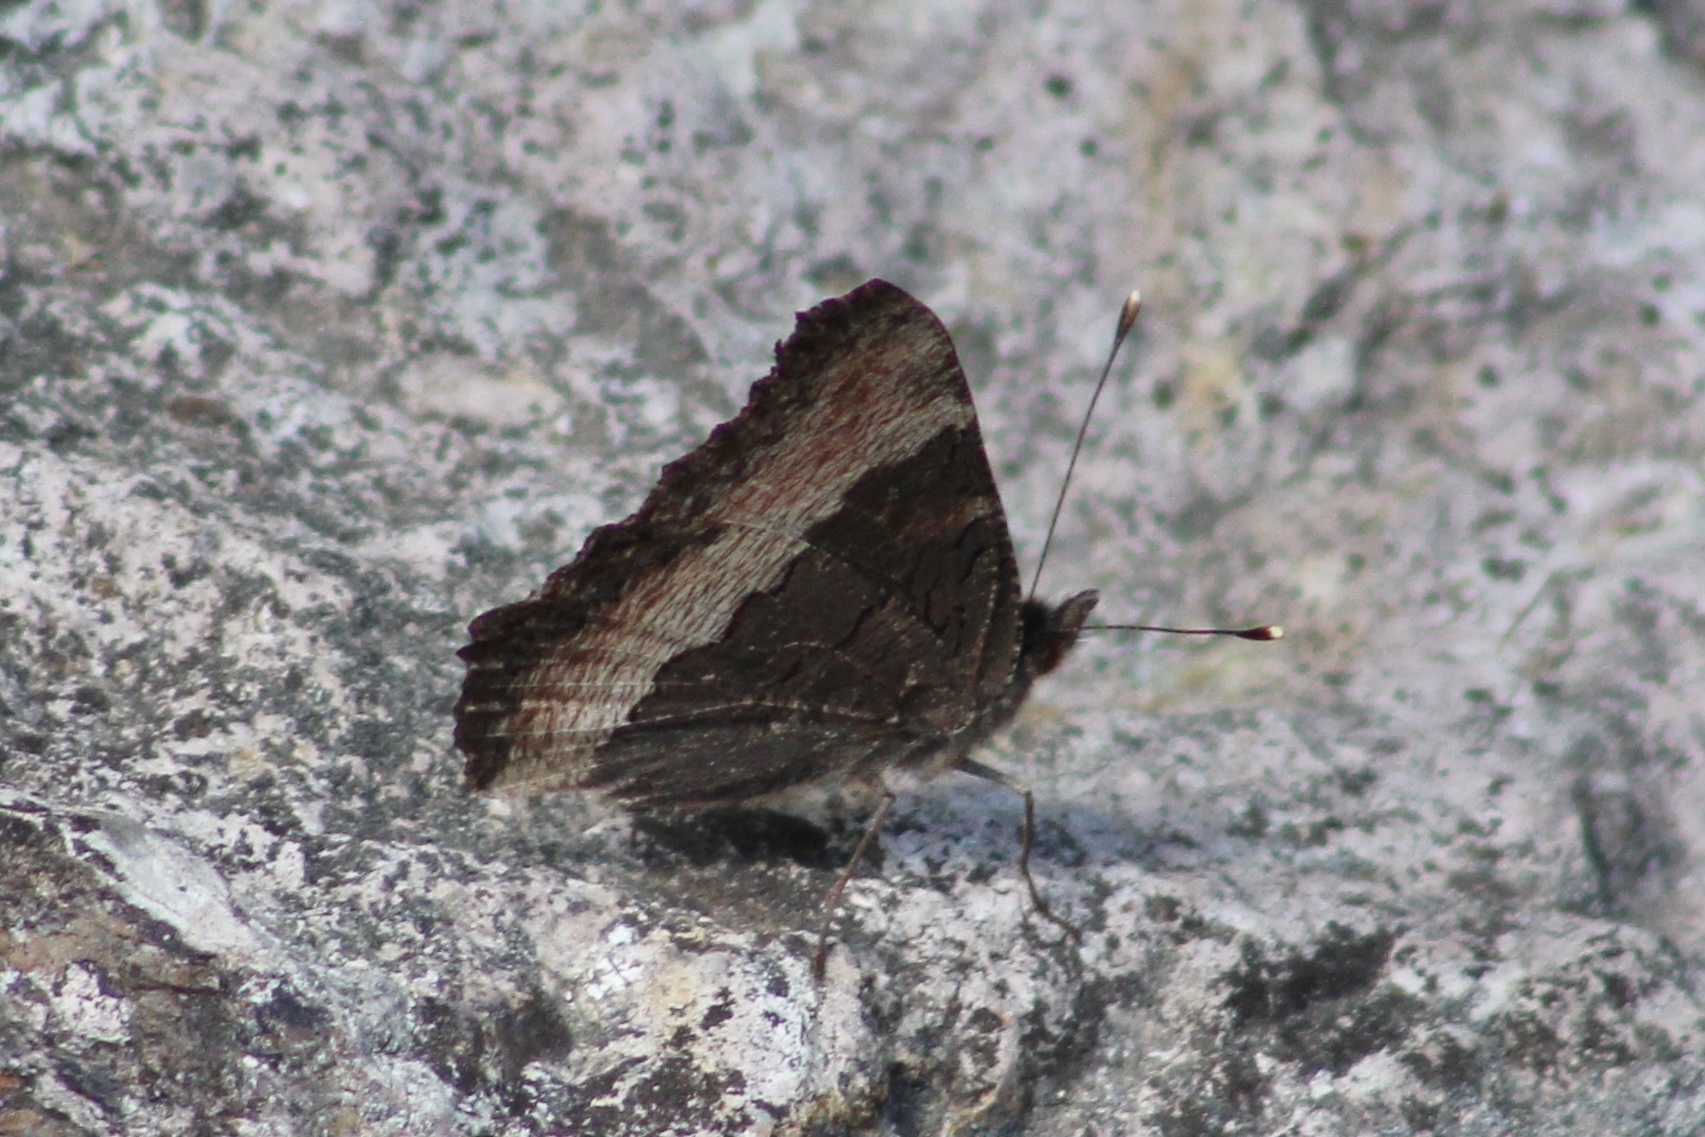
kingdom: Animalia
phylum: Arthropoda
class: Insecta
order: Lepidoptera
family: Nymphalidae
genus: Aglais
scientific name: Aglais milberti
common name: Milbert's tortoiseshell
